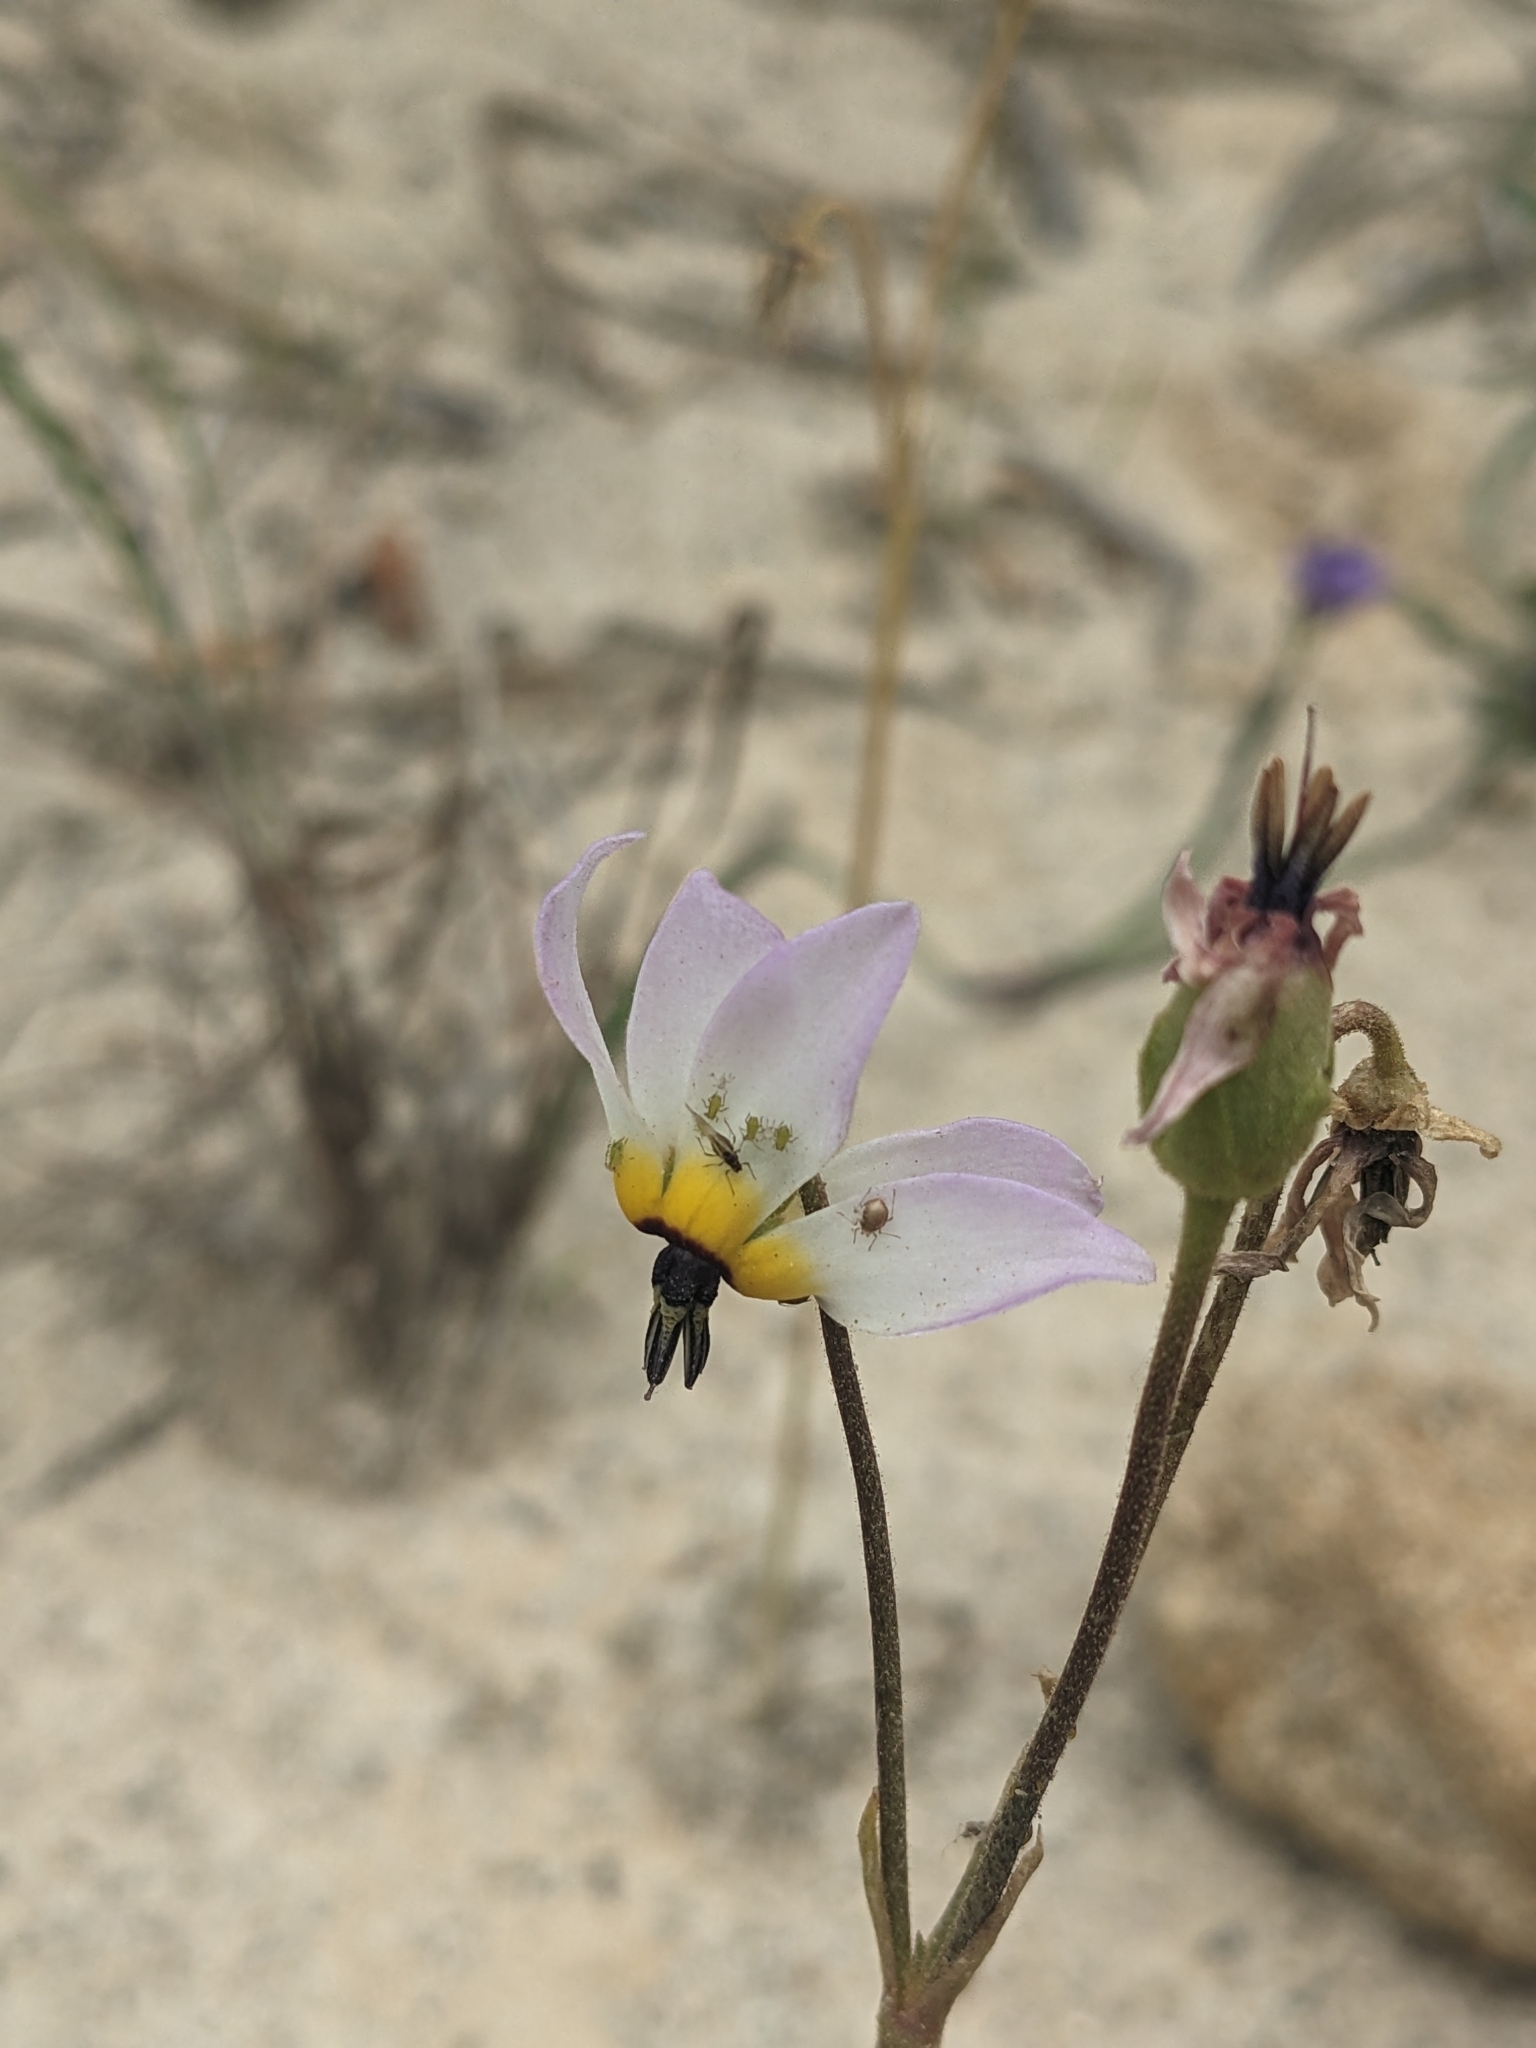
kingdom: Plantae
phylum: Tracheophyta
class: Magnoliopsida
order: Ericales
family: Primulaceae
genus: Dodecatheon
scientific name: Dodecatheon clevelandii
